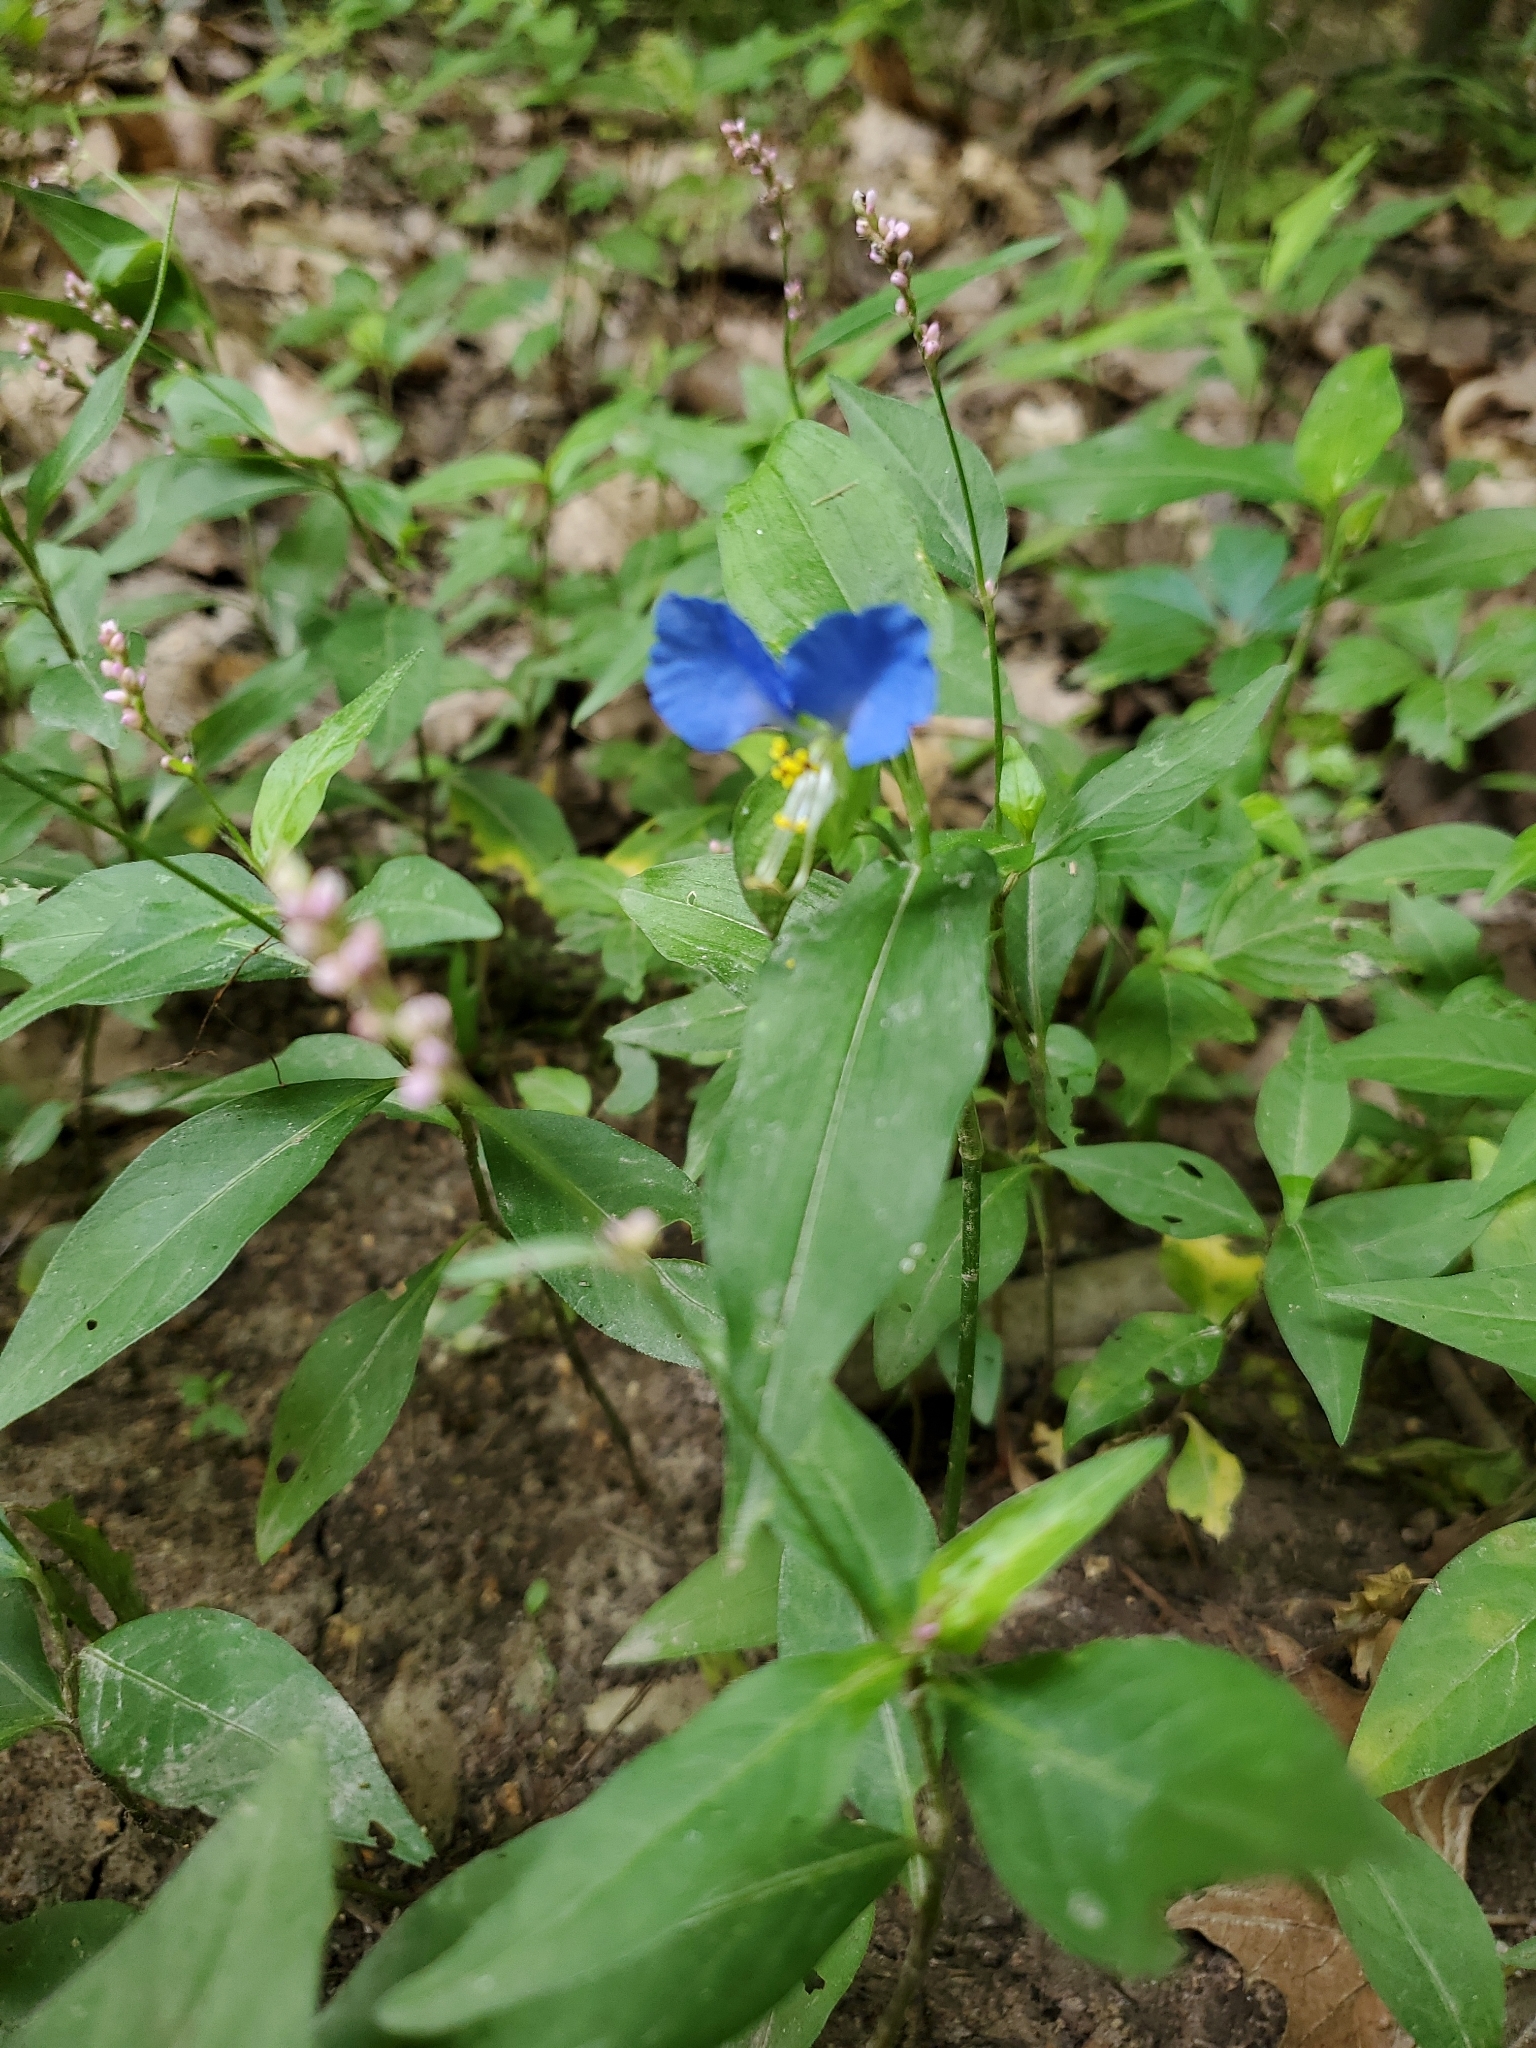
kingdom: Plantae
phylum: Tracheophyta
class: Liliopsida
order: Commelinales
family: Commelinaceae
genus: Commelina
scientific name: Commelina communis
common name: Asiatic dayflower
